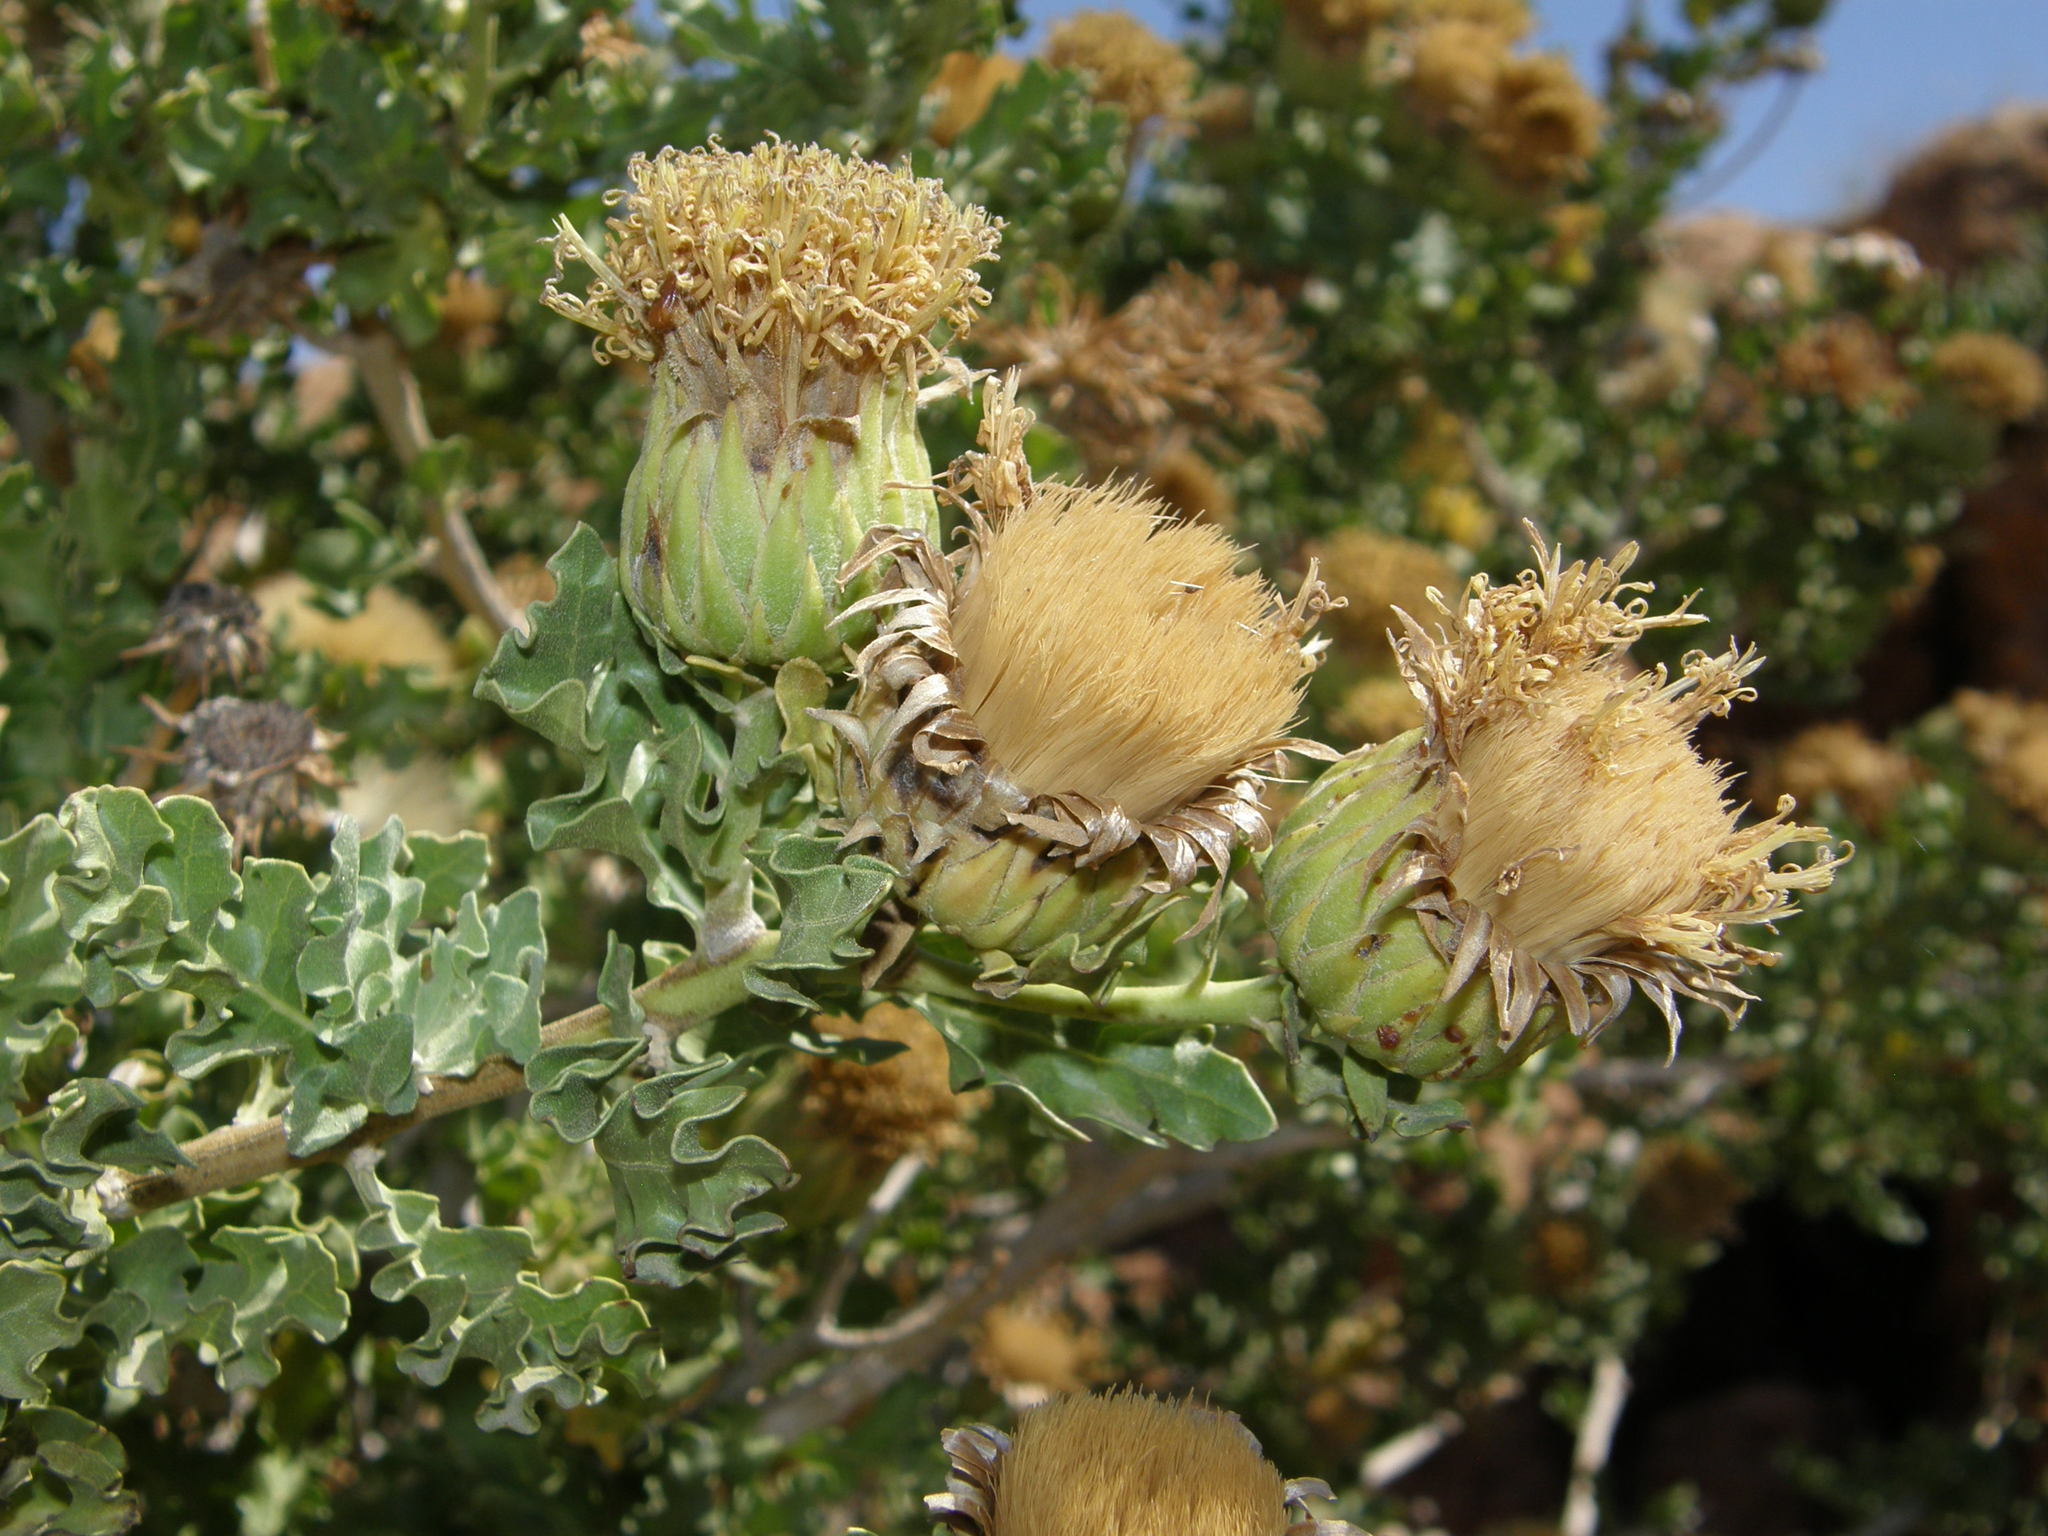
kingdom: Plantae
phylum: Tracheophyta
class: Magnoliopsida
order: Asterales
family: Asteraceae
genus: Warionia
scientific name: Warionia saharae
